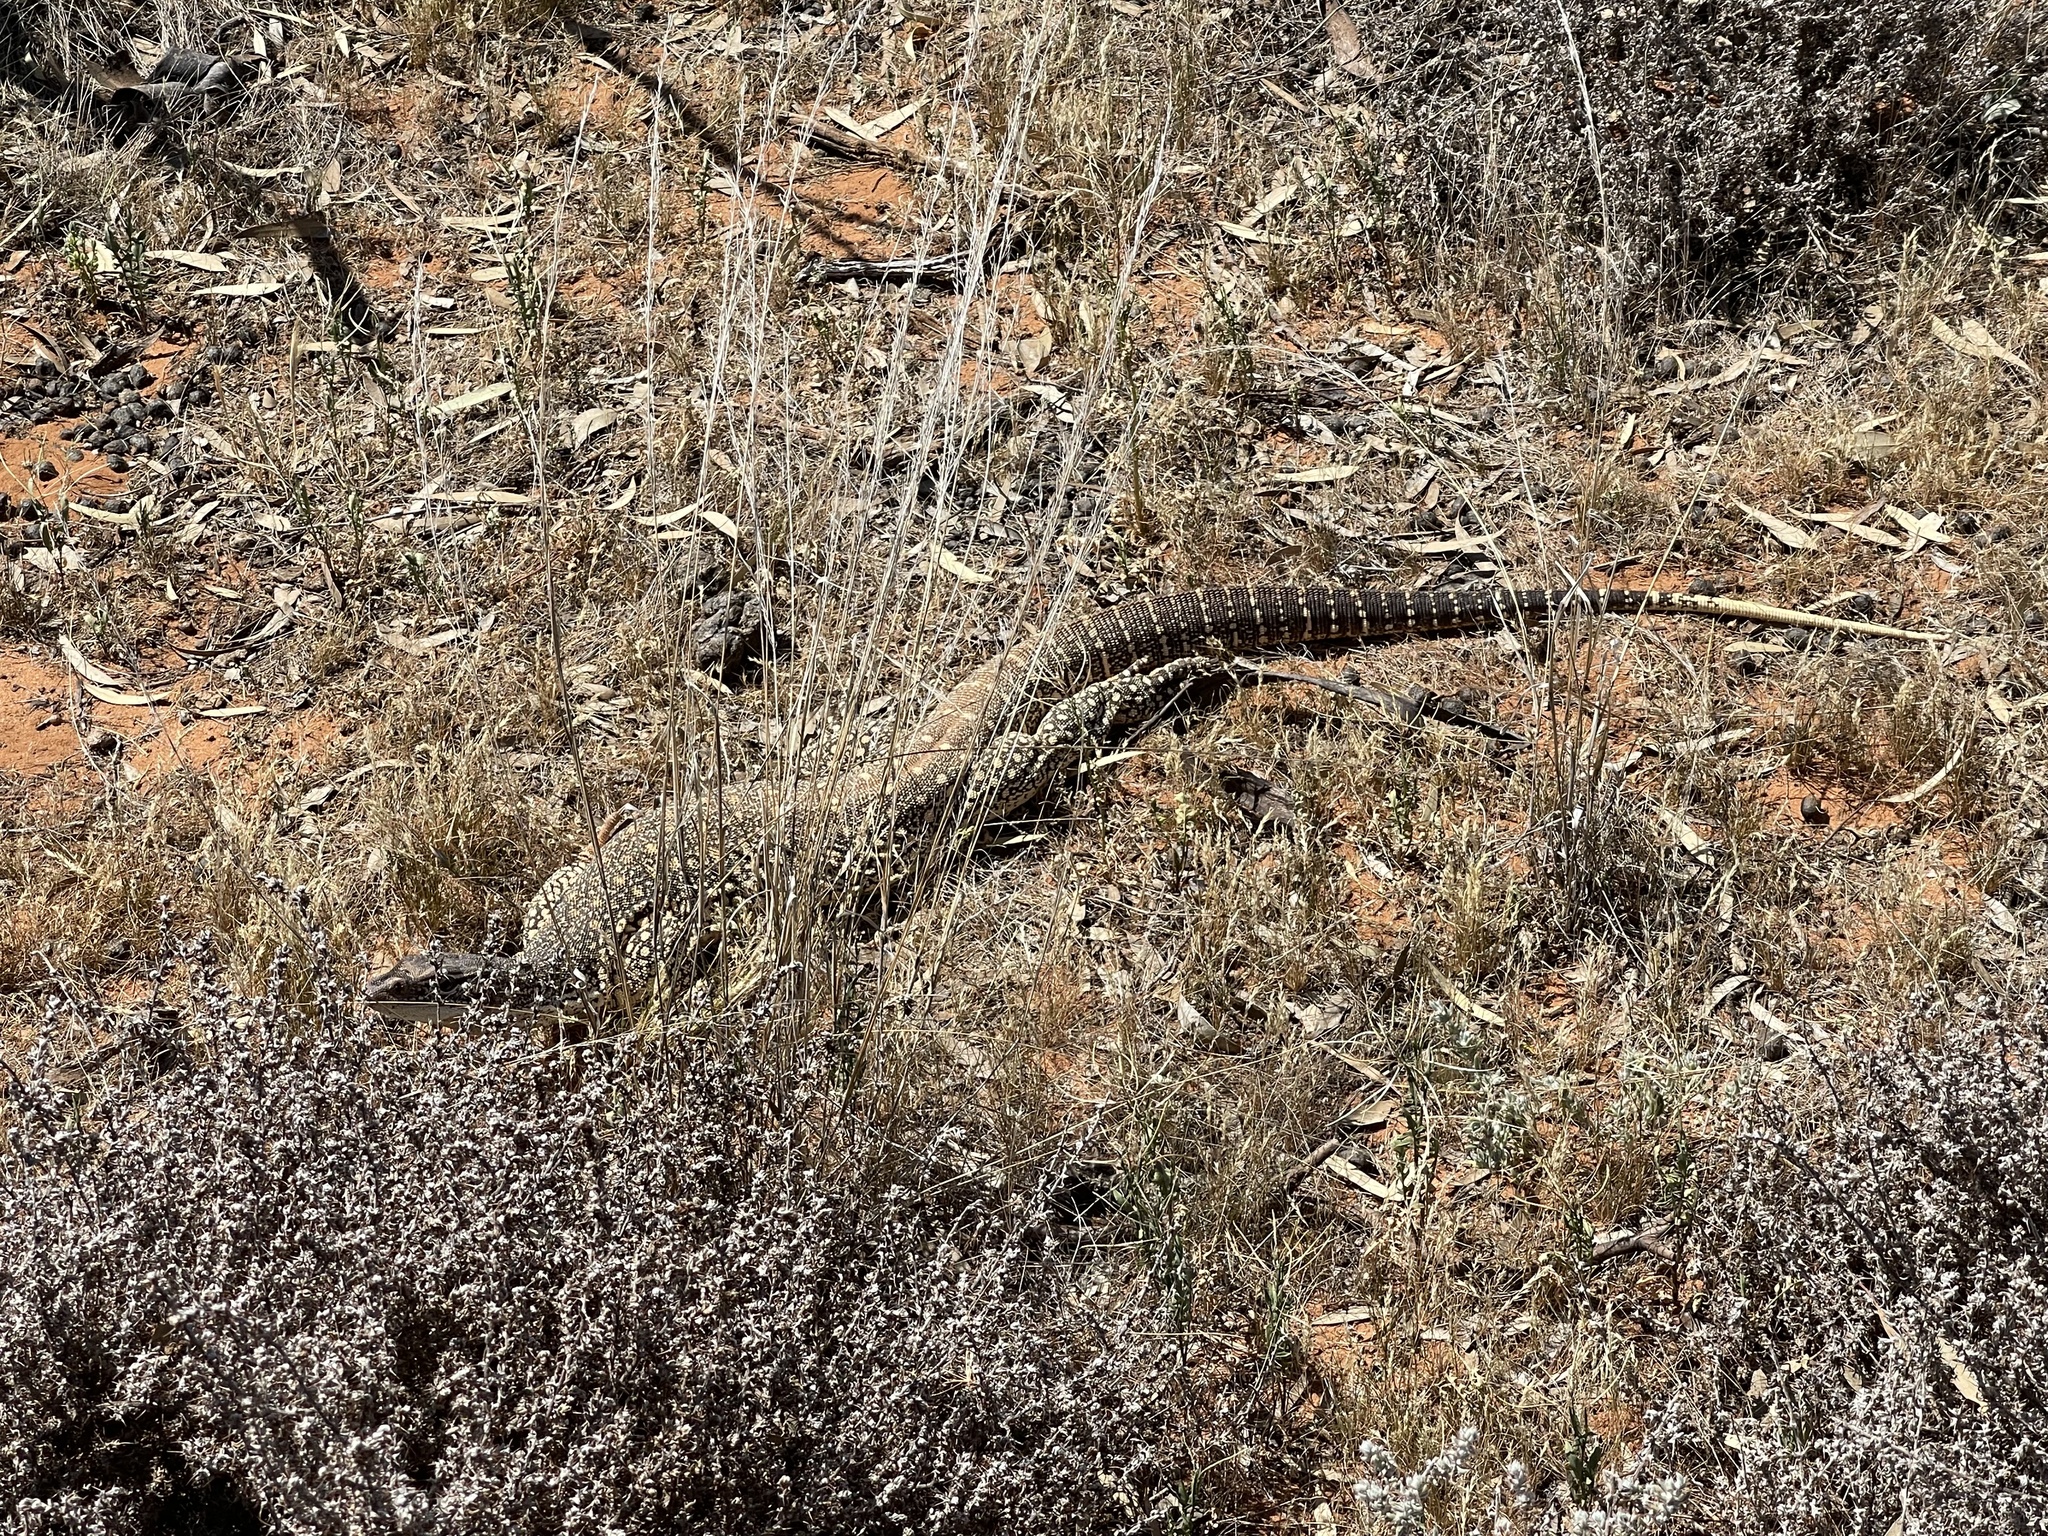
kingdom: Animalia
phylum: Chordata
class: Squamata
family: Varanidae
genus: Varanus
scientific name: Varanus gouldii
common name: Gould's goanna
